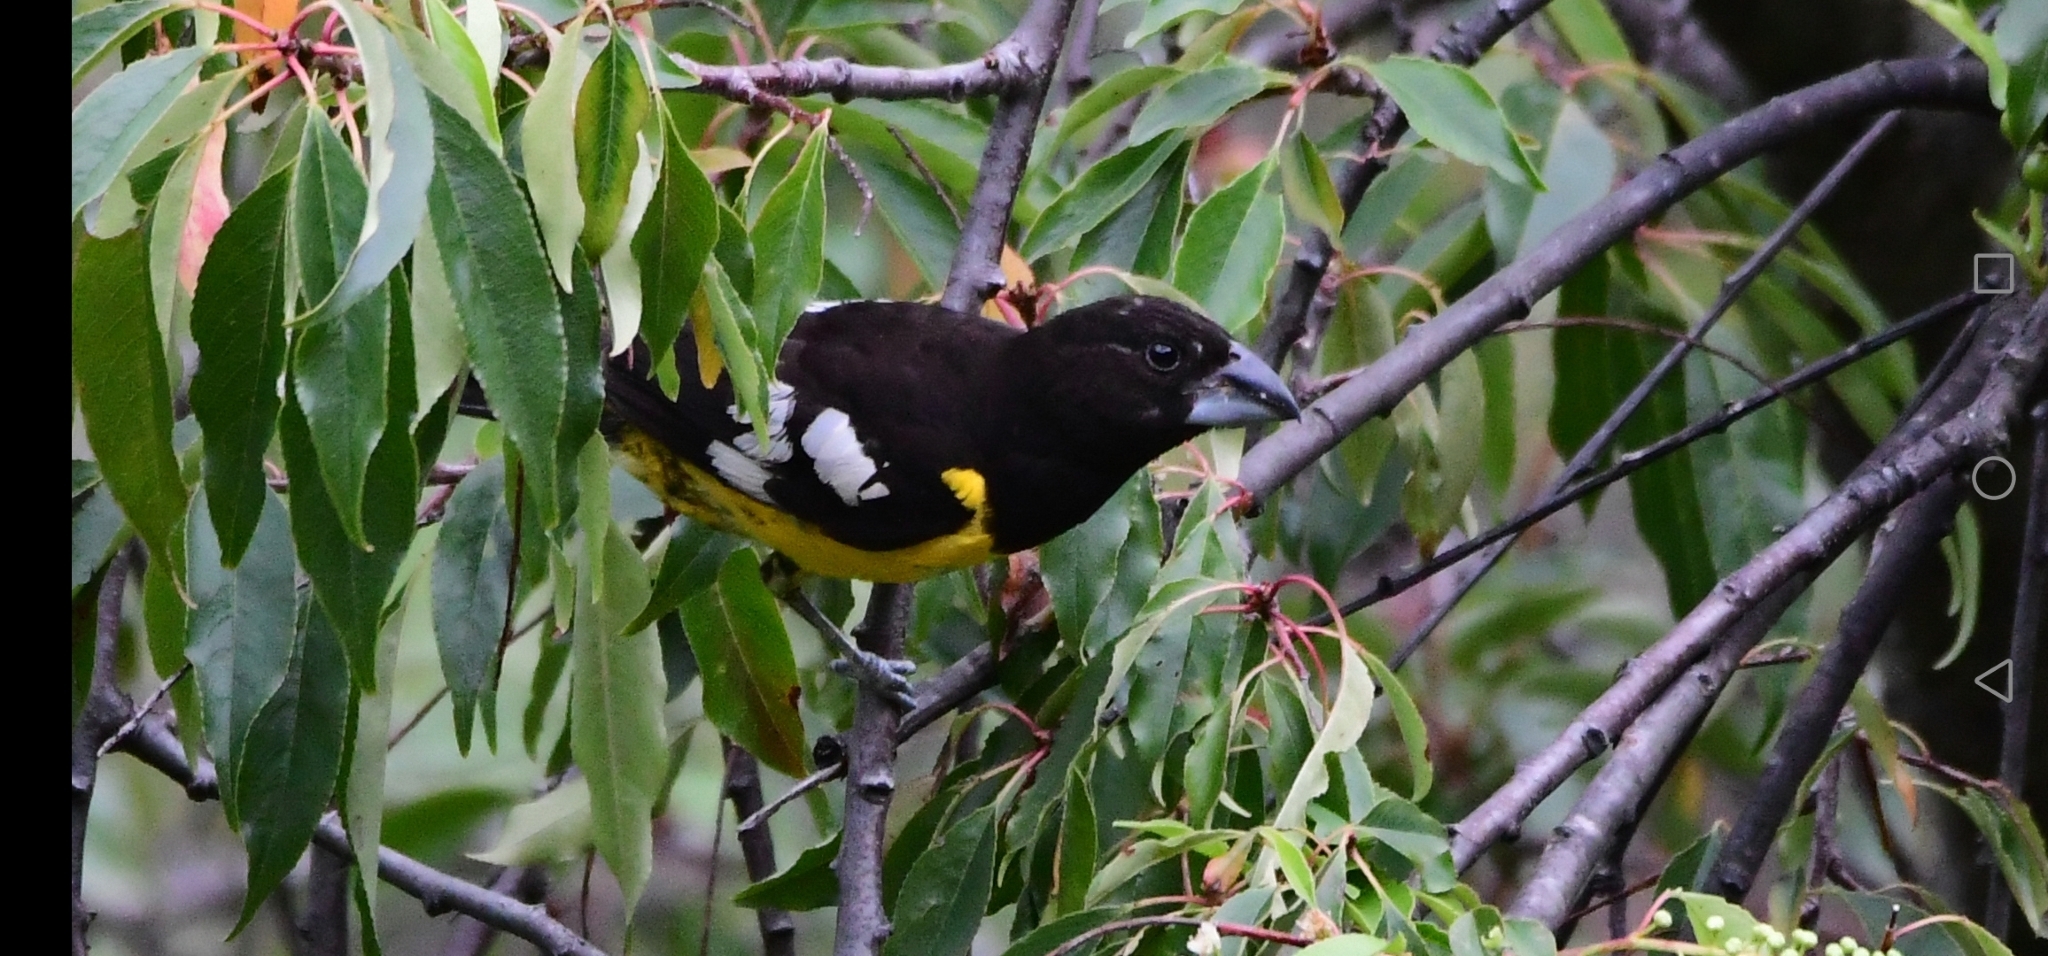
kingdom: Animalia
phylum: Chordata
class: Aves
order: Passeriformes
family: Cardinalidae
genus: Pheucticus
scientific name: Pheucticus aureoventris
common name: Black-backed grosbeak
